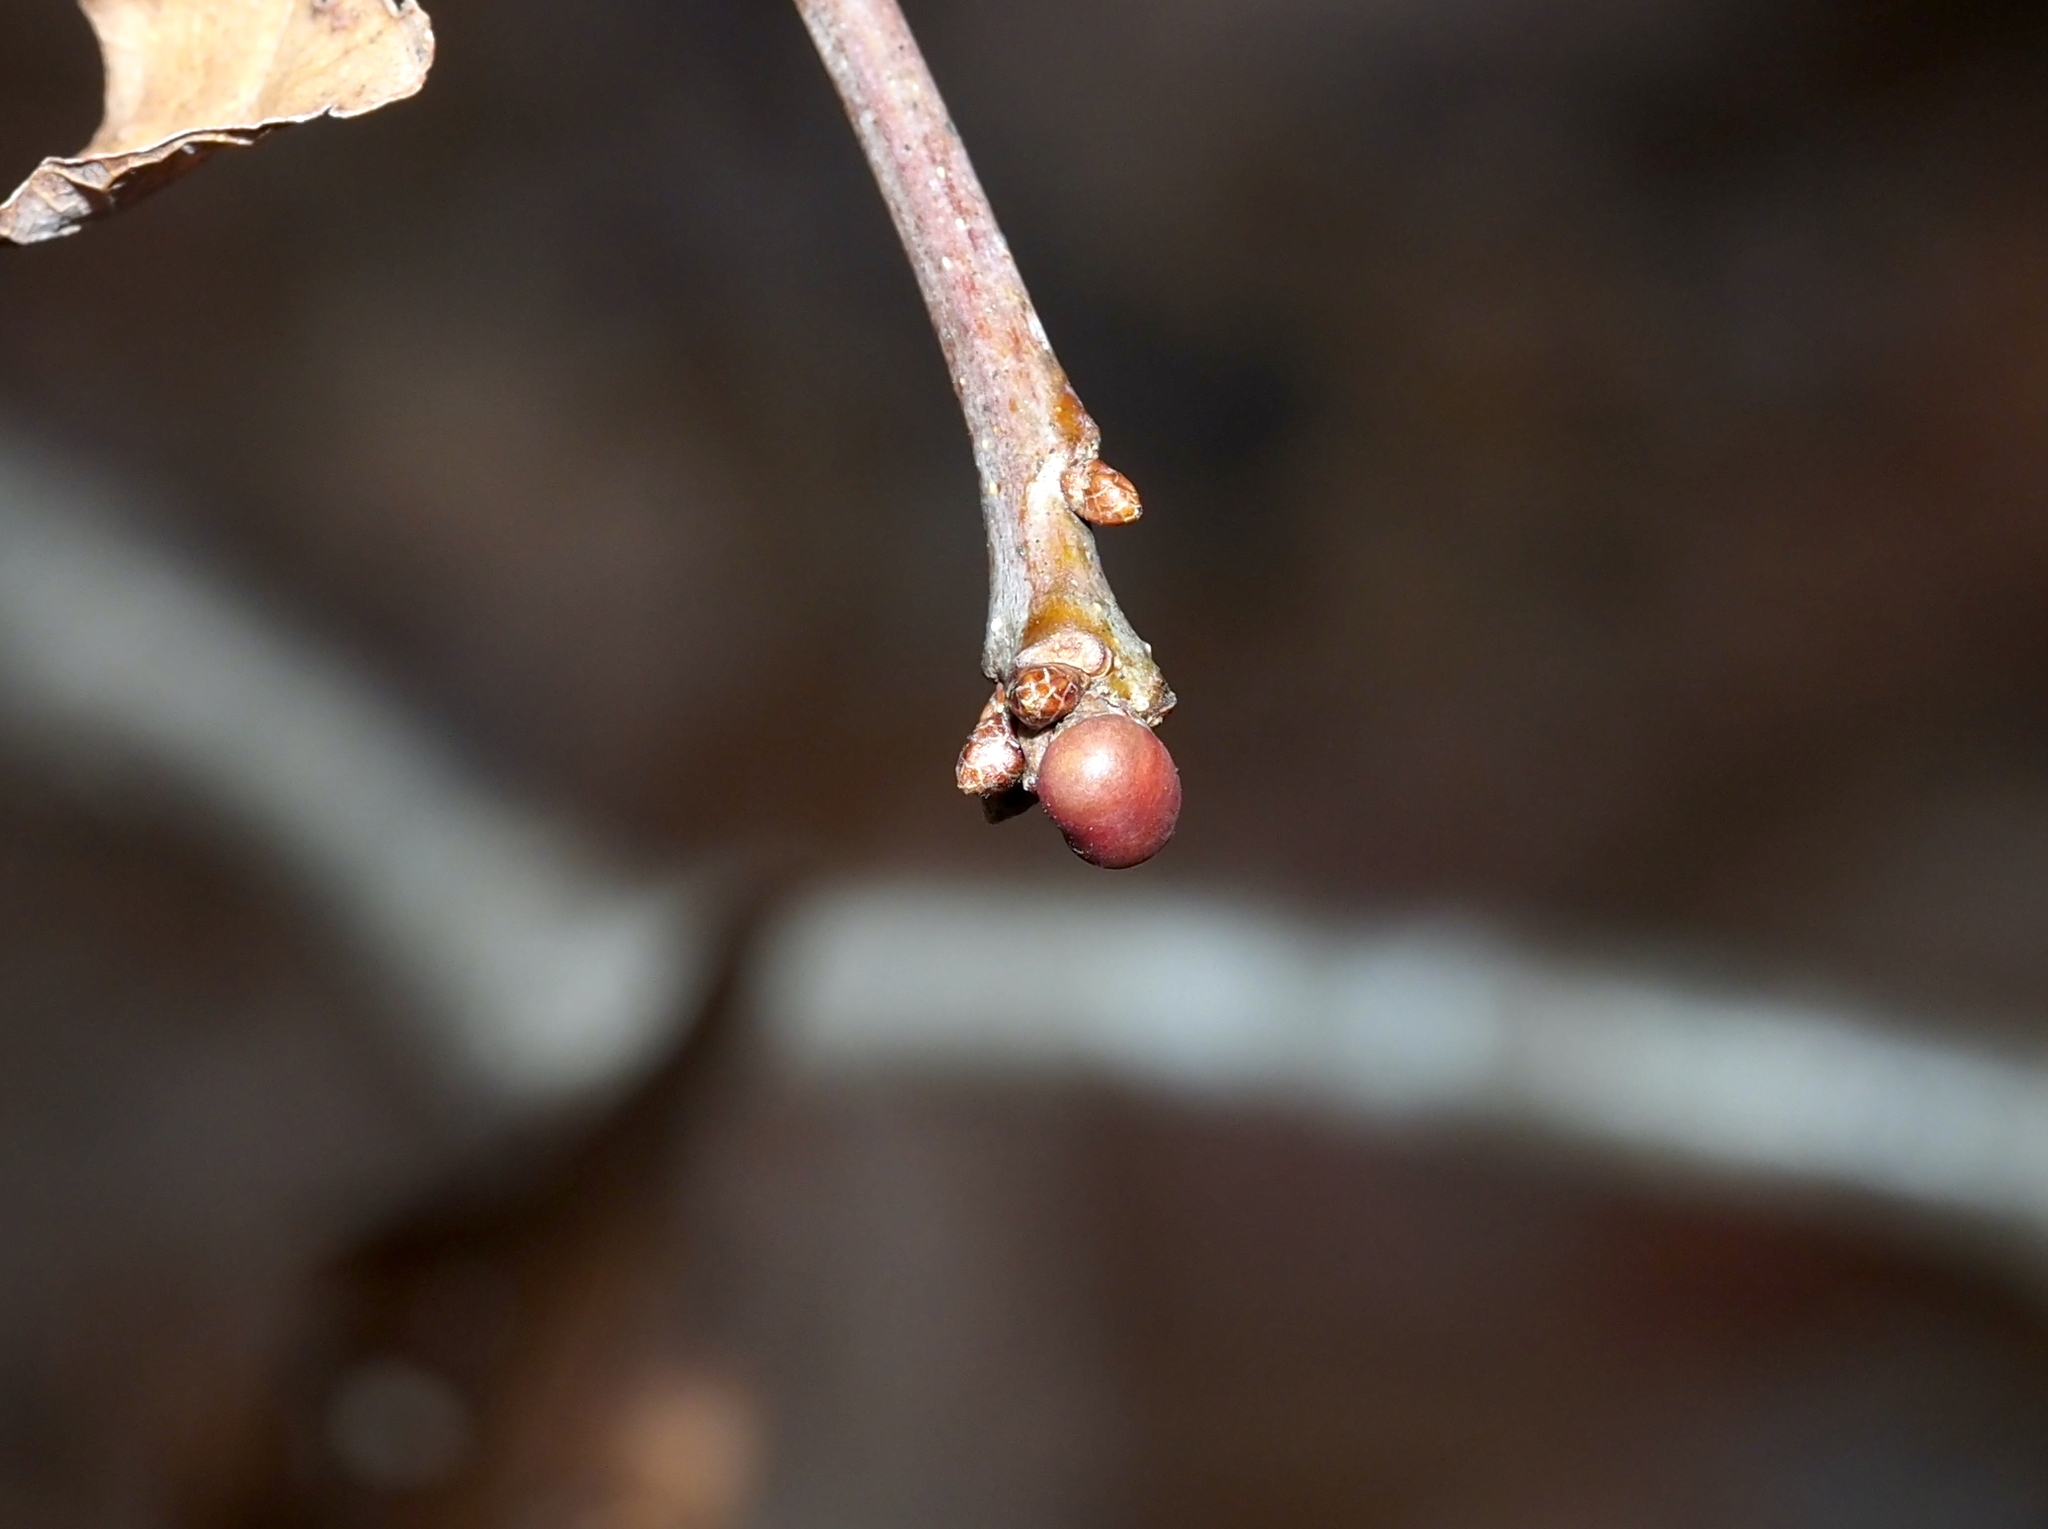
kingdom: Animalia
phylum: Arthropoda
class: Insecta
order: Hymenoptera
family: Cynipidae
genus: Neuroterus
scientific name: Neuroterus
